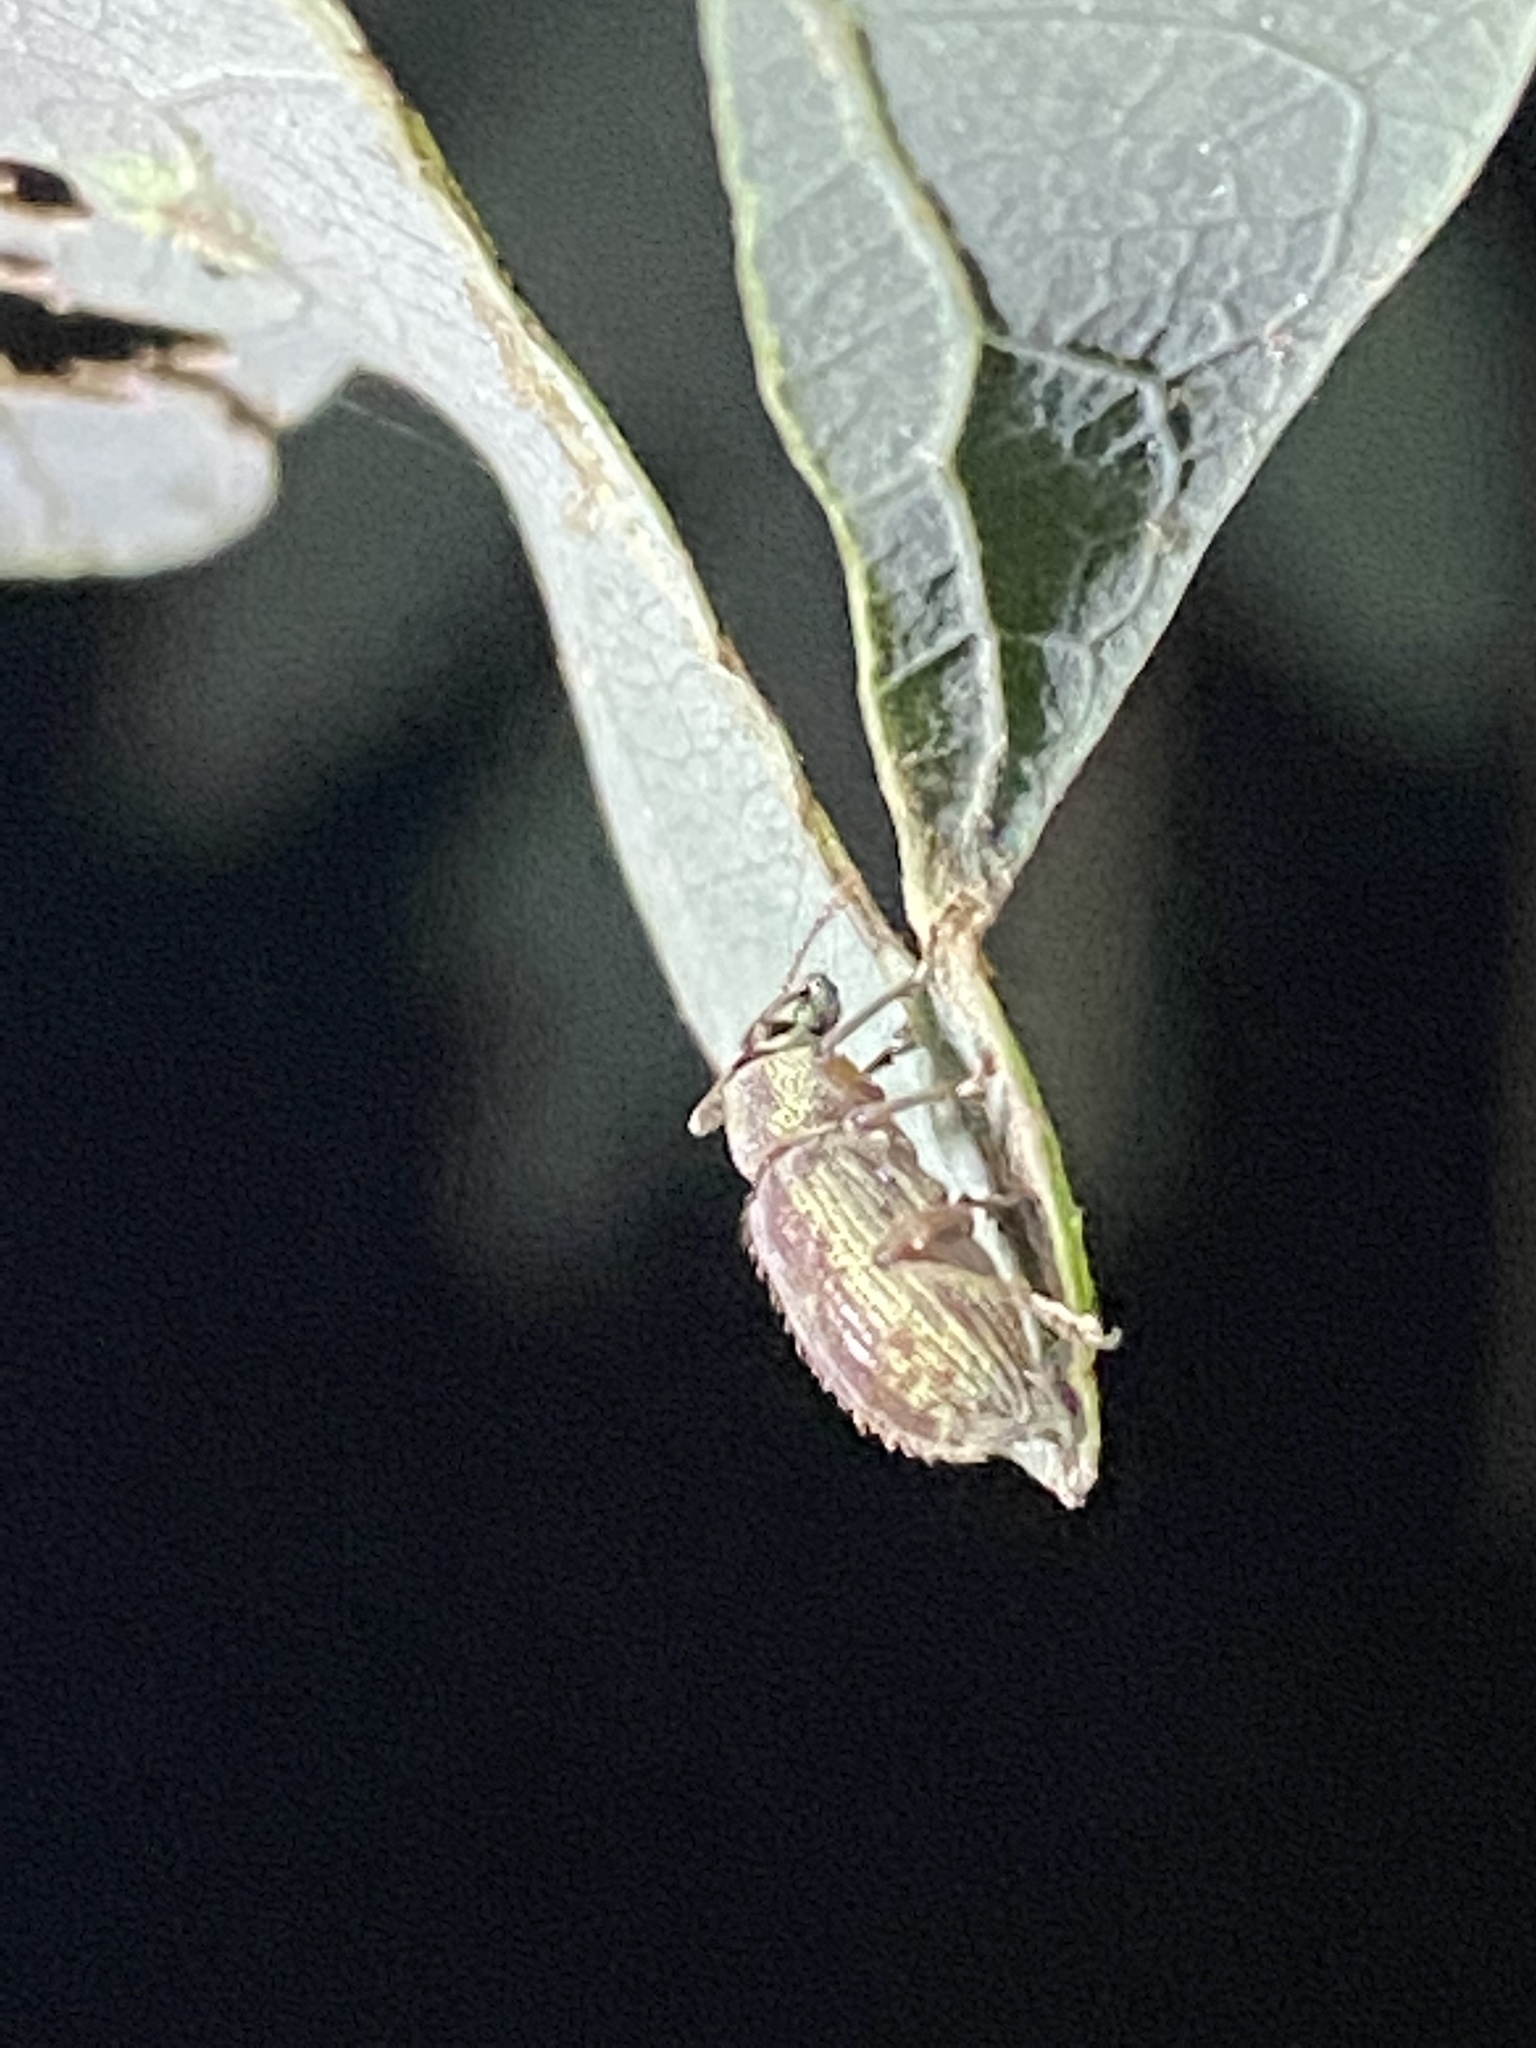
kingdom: Animalia
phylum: Arthropoda
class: Insecta
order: Coleoptera
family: Curculionidae
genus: Cyrtepistomus
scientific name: Cyrtepistomus castaneus
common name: Weevil
